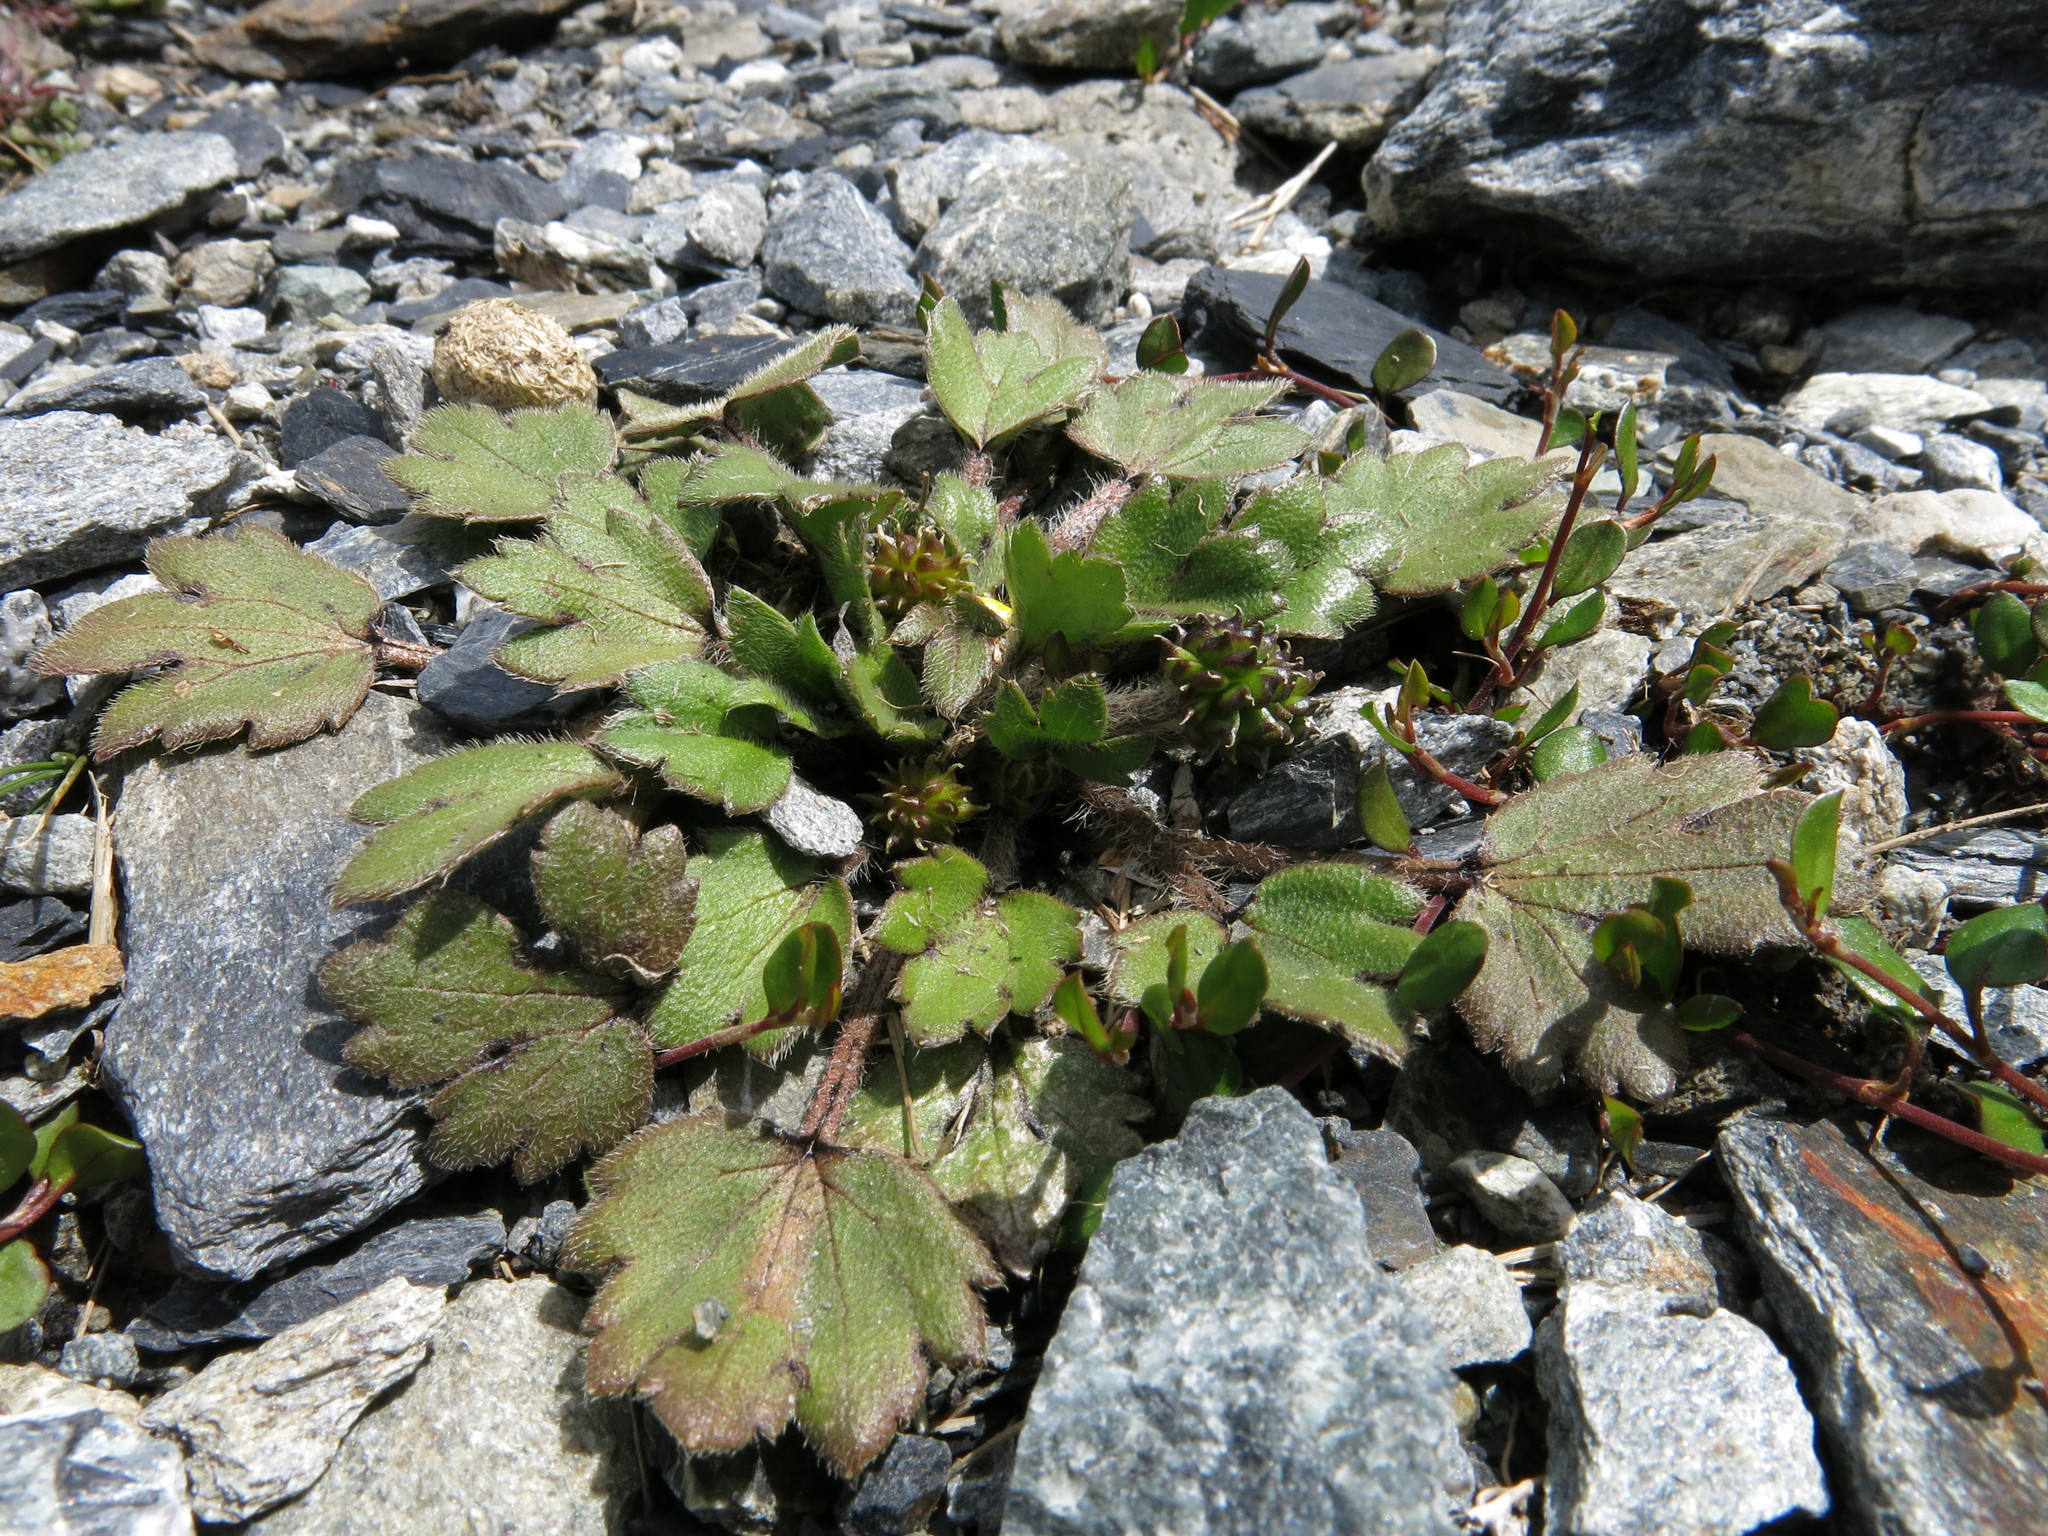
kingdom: Plantae
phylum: Tracheophyta
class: Magnoliopsida
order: Ranunculales
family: Ranunculaceae
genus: Ranunculus
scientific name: Ranunculus foliosus
